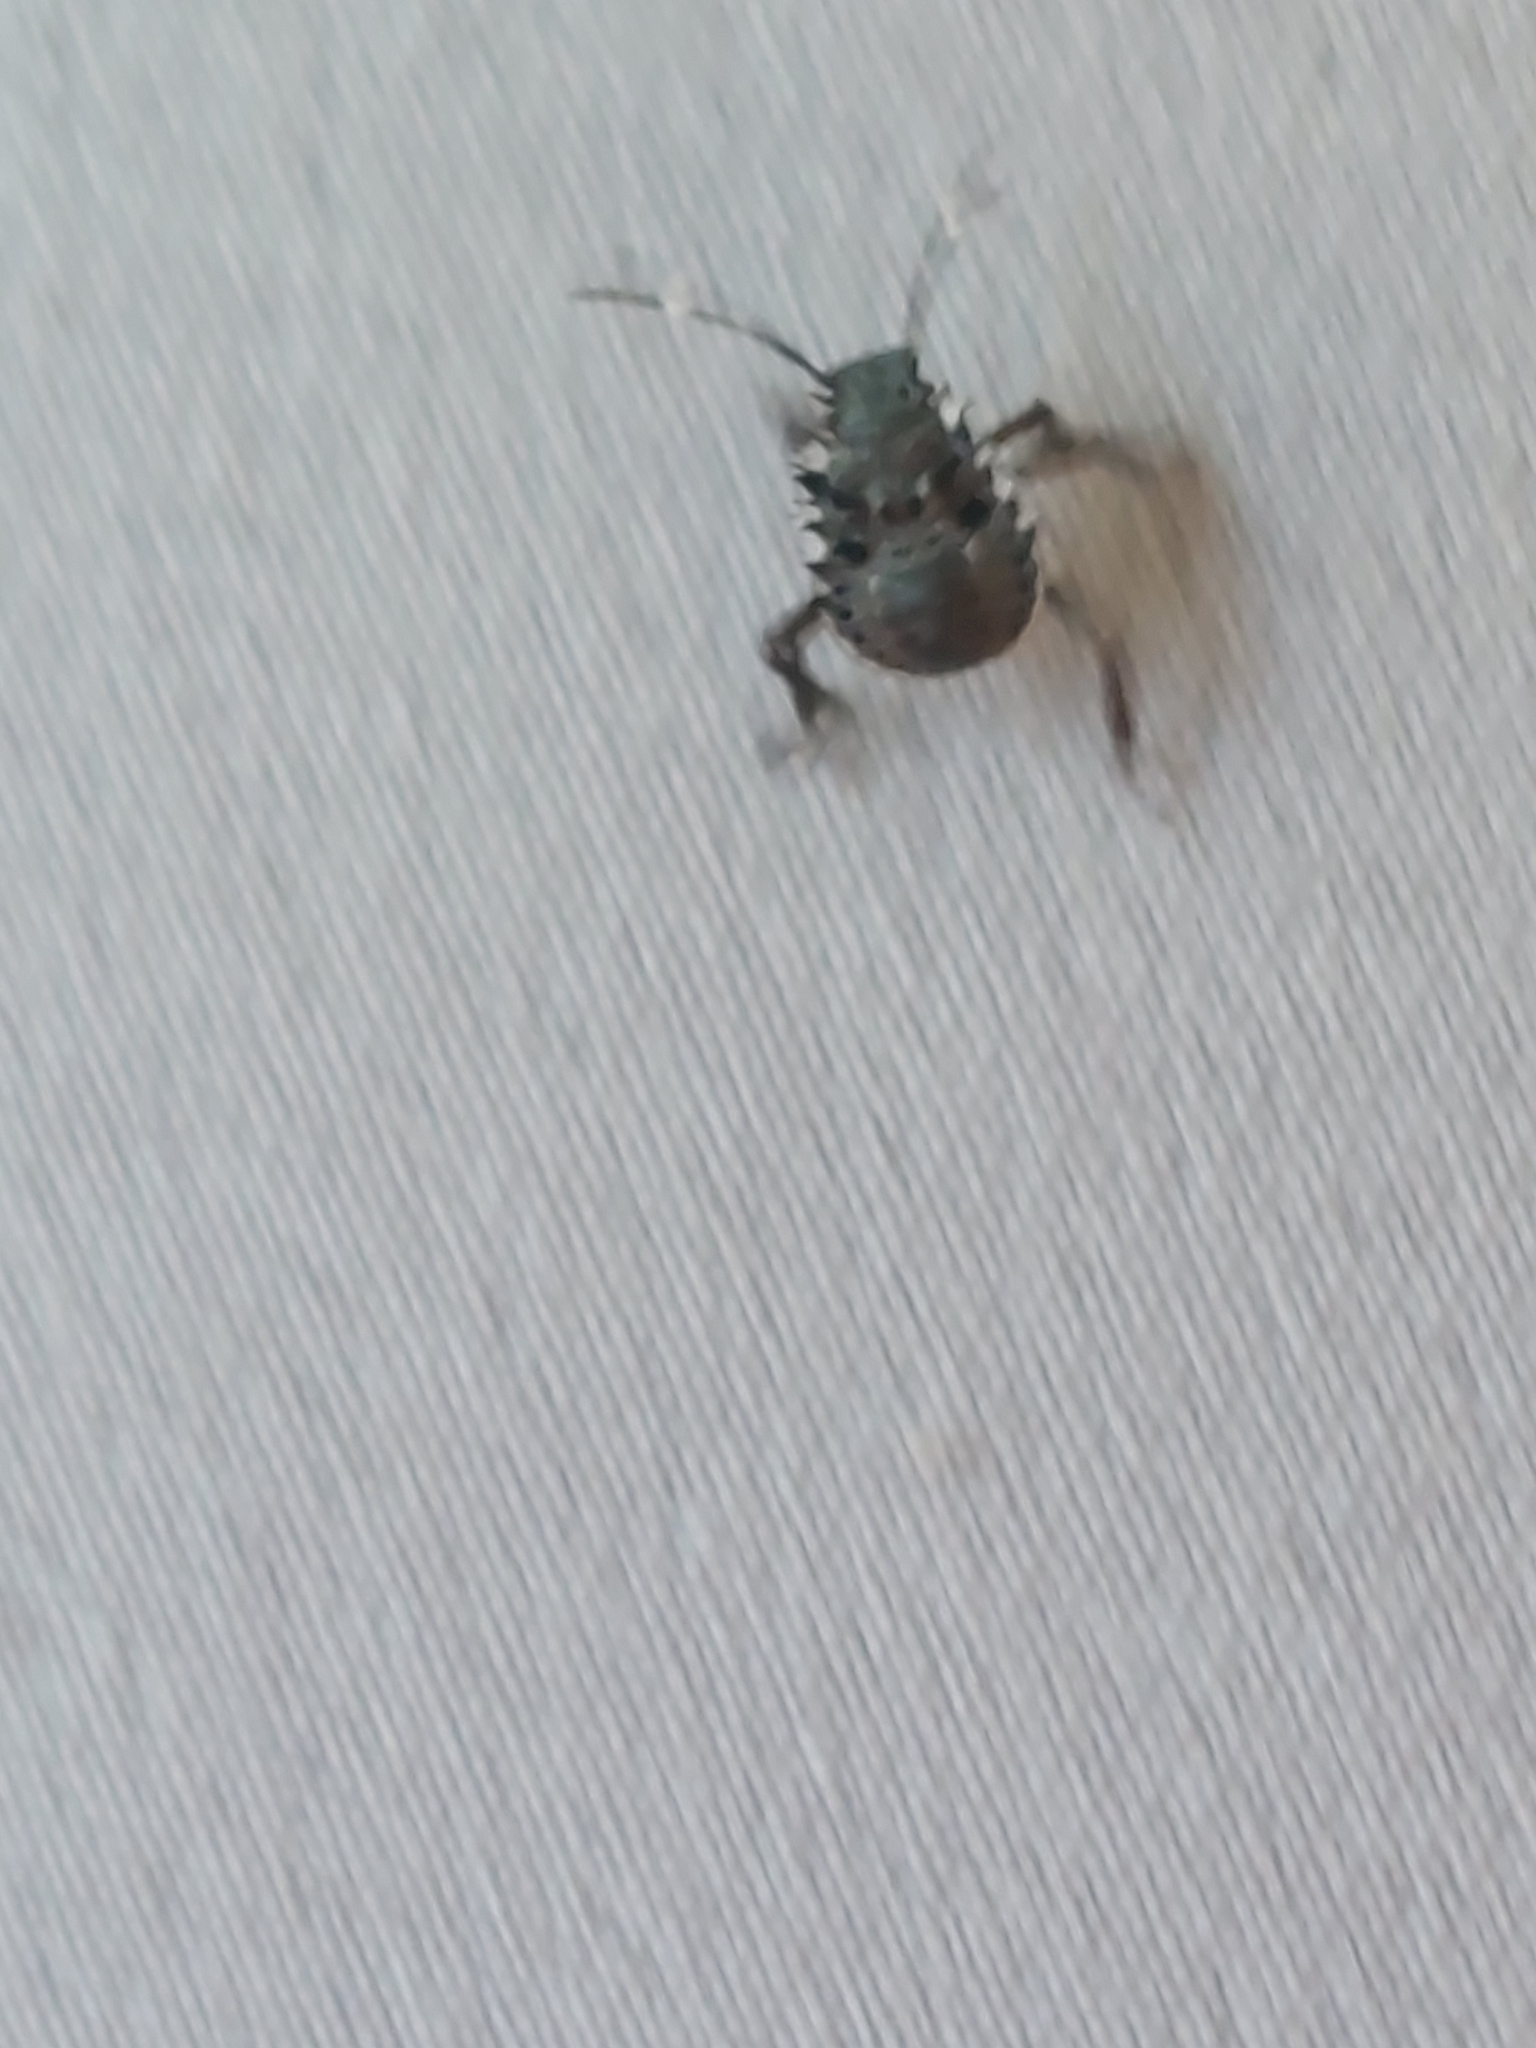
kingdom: Animalia
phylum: Arthropoda
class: Insecta
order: Hemiptera
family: Pentatomidae
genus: Halyomorpha
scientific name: Halyomorpha halys
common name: Brown marmorated stink bug
